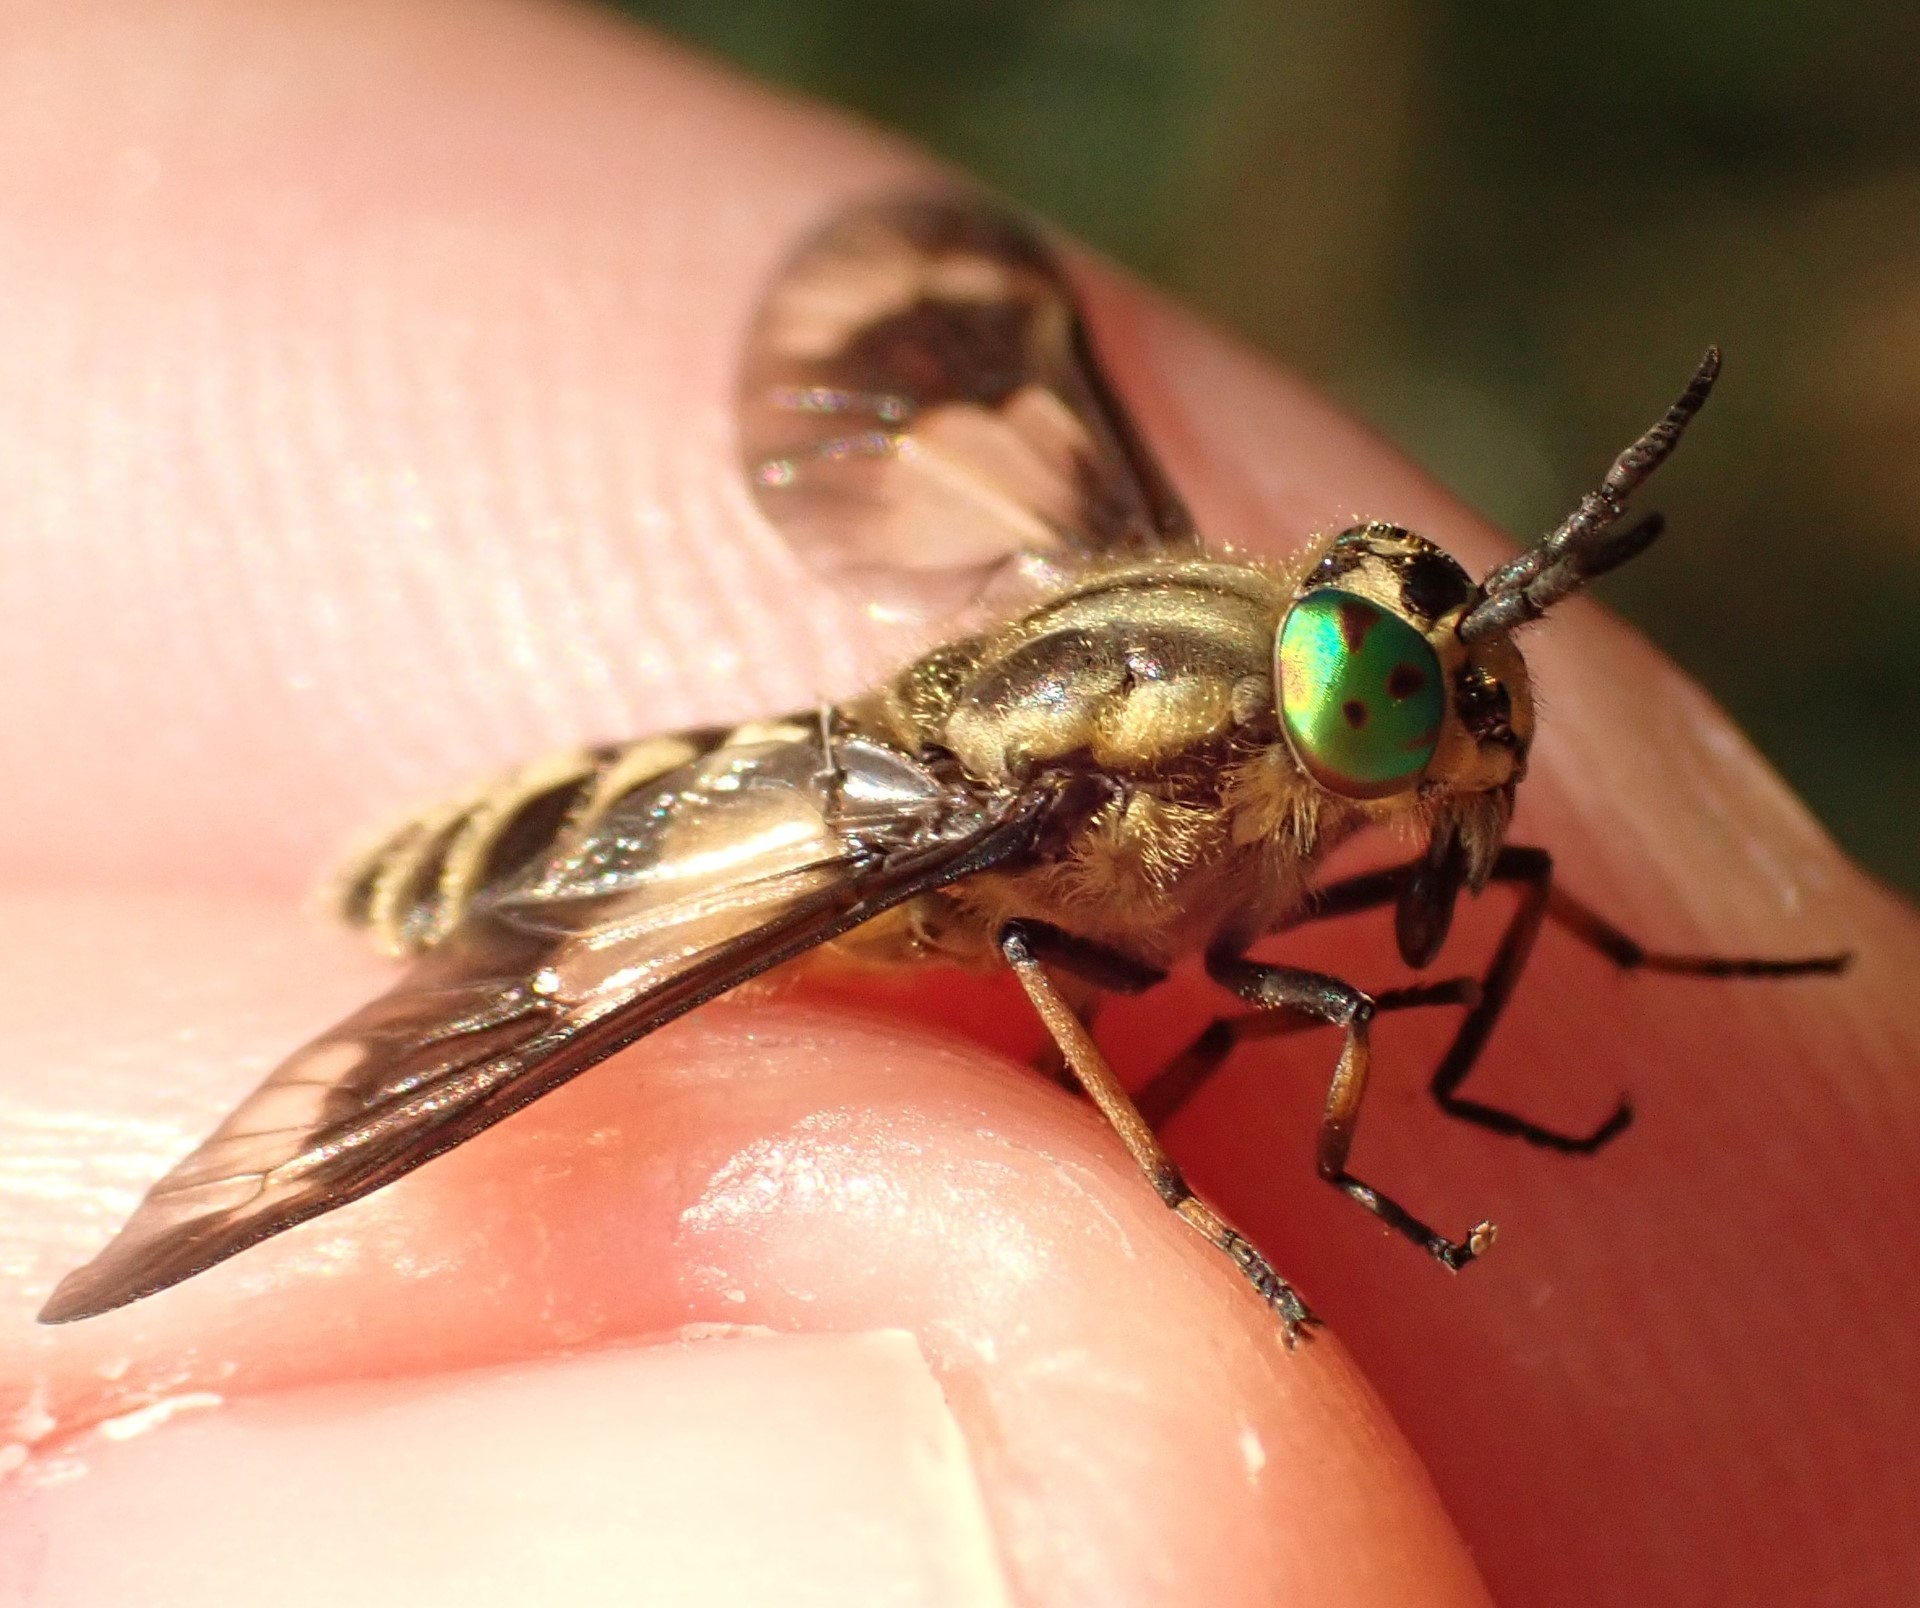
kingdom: Animalia
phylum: Arthropoda
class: Insecta
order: Diptera
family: Tabanidae
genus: Chrysops
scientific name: Chrysops relictus
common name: Twin-lobed deerfly
